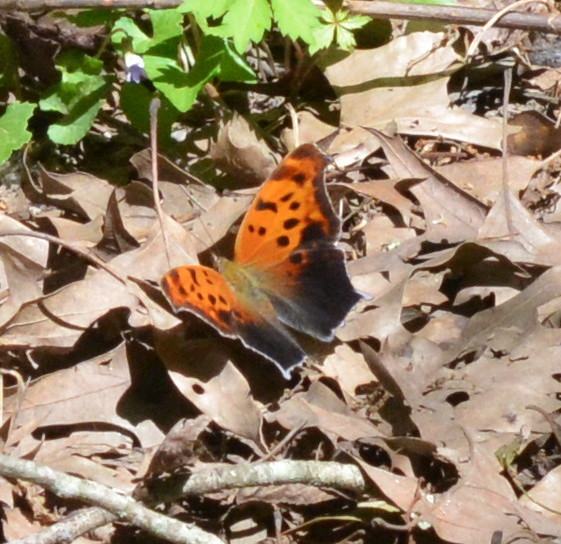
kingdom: Animalia
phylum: Arthropoda
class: Insecta
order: Lepidoptera
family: Nymphalidae
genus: Polygonia
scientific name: Polygonia interrogationis
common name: Question mark
